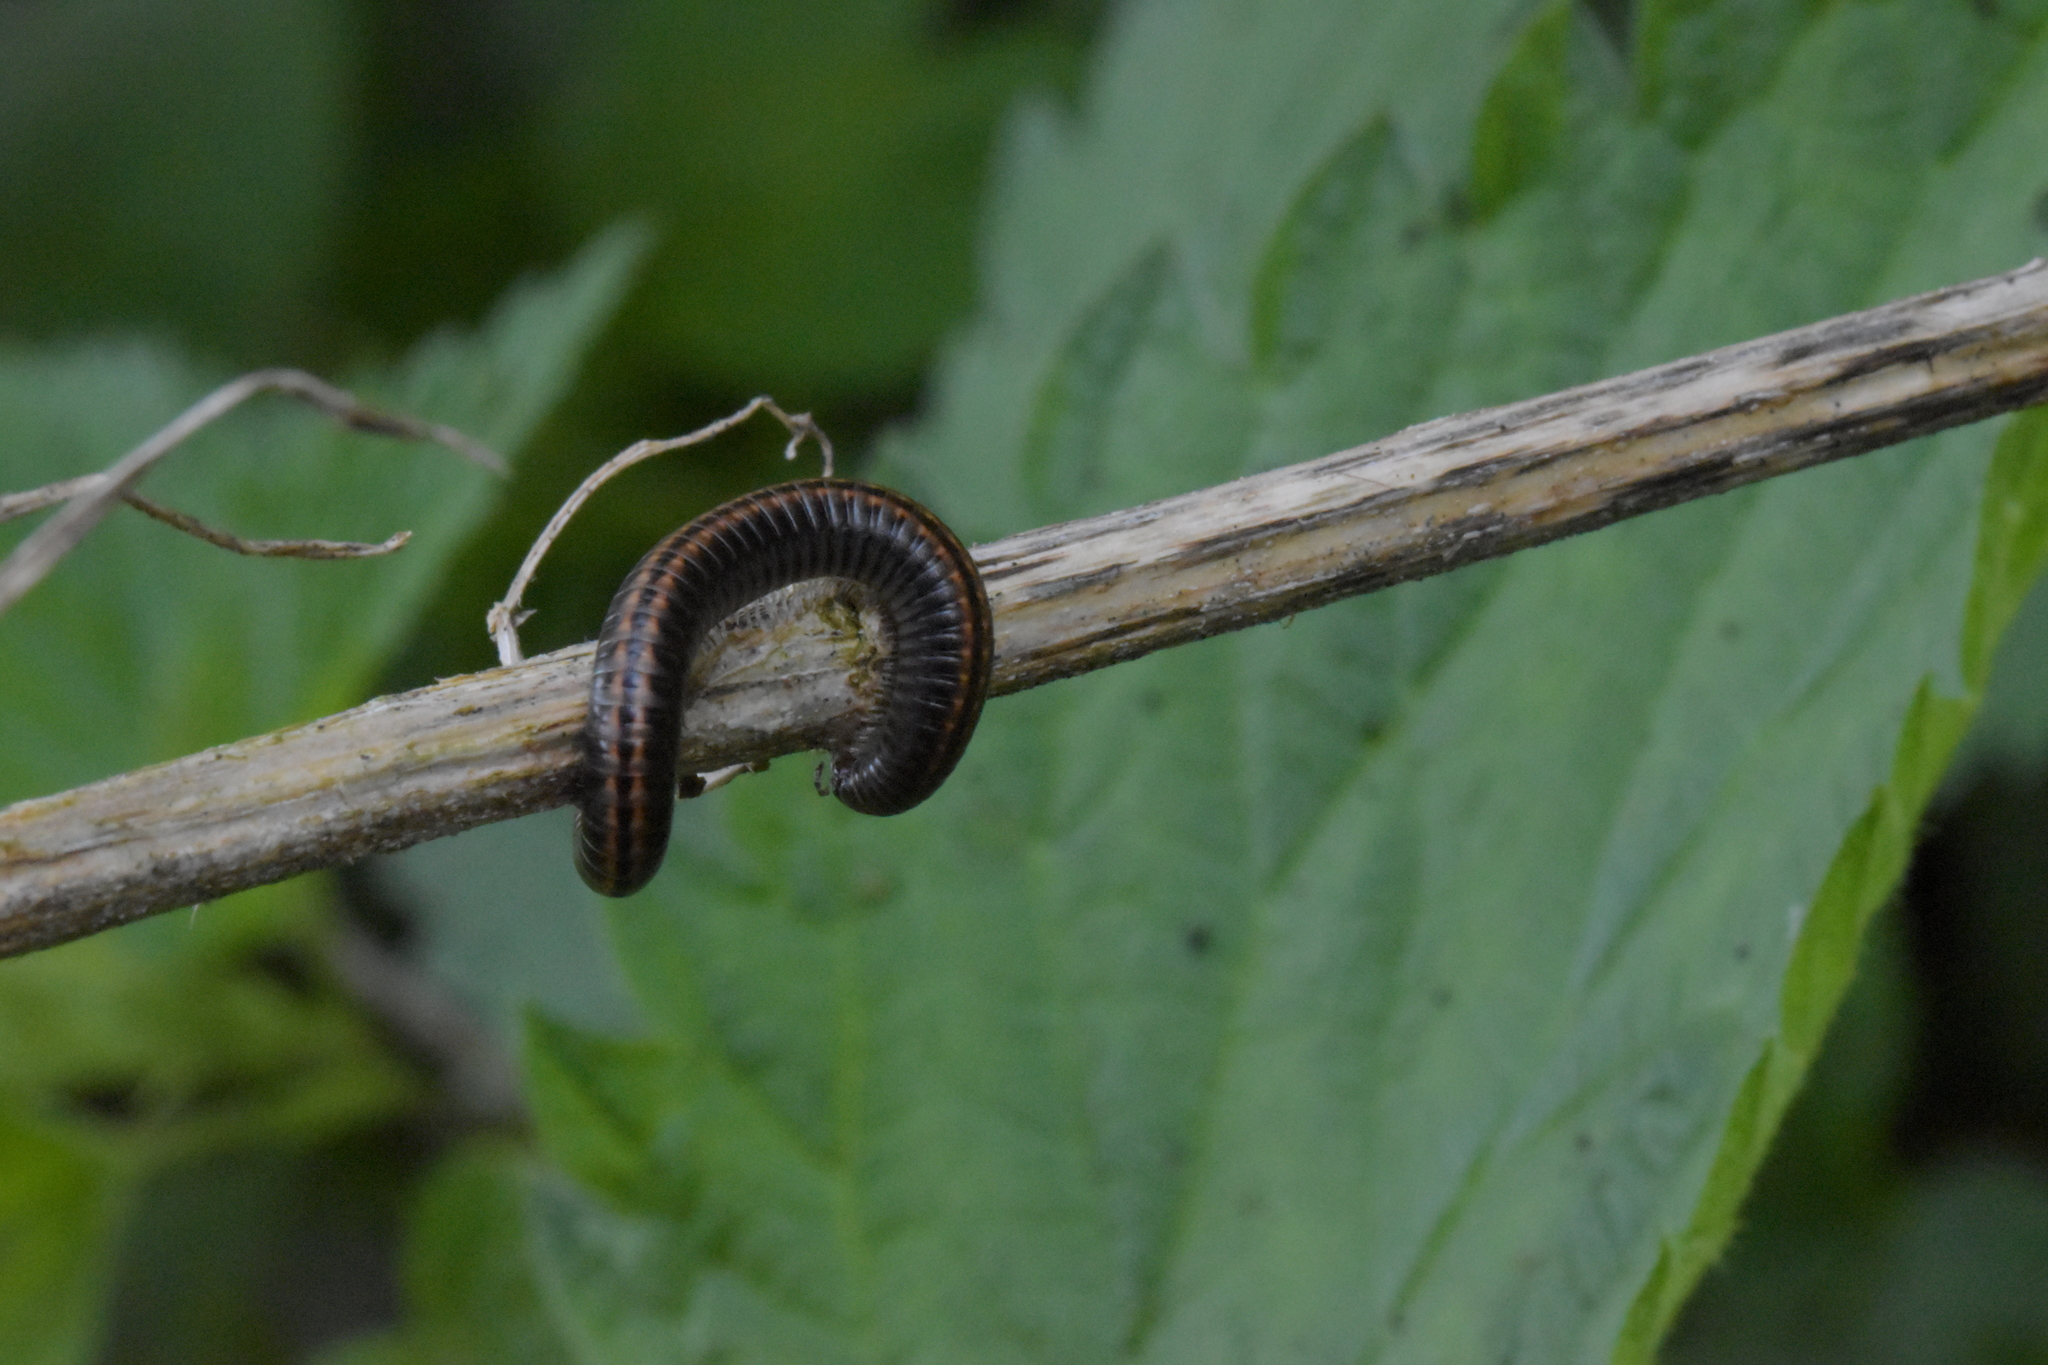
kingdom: Animalia
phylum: Arthropoda
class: Diplopoda
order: Julida
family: Julidae
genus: Ommatoiulus
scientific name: Ommatoiulus sabulosus
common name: Striped millipede
